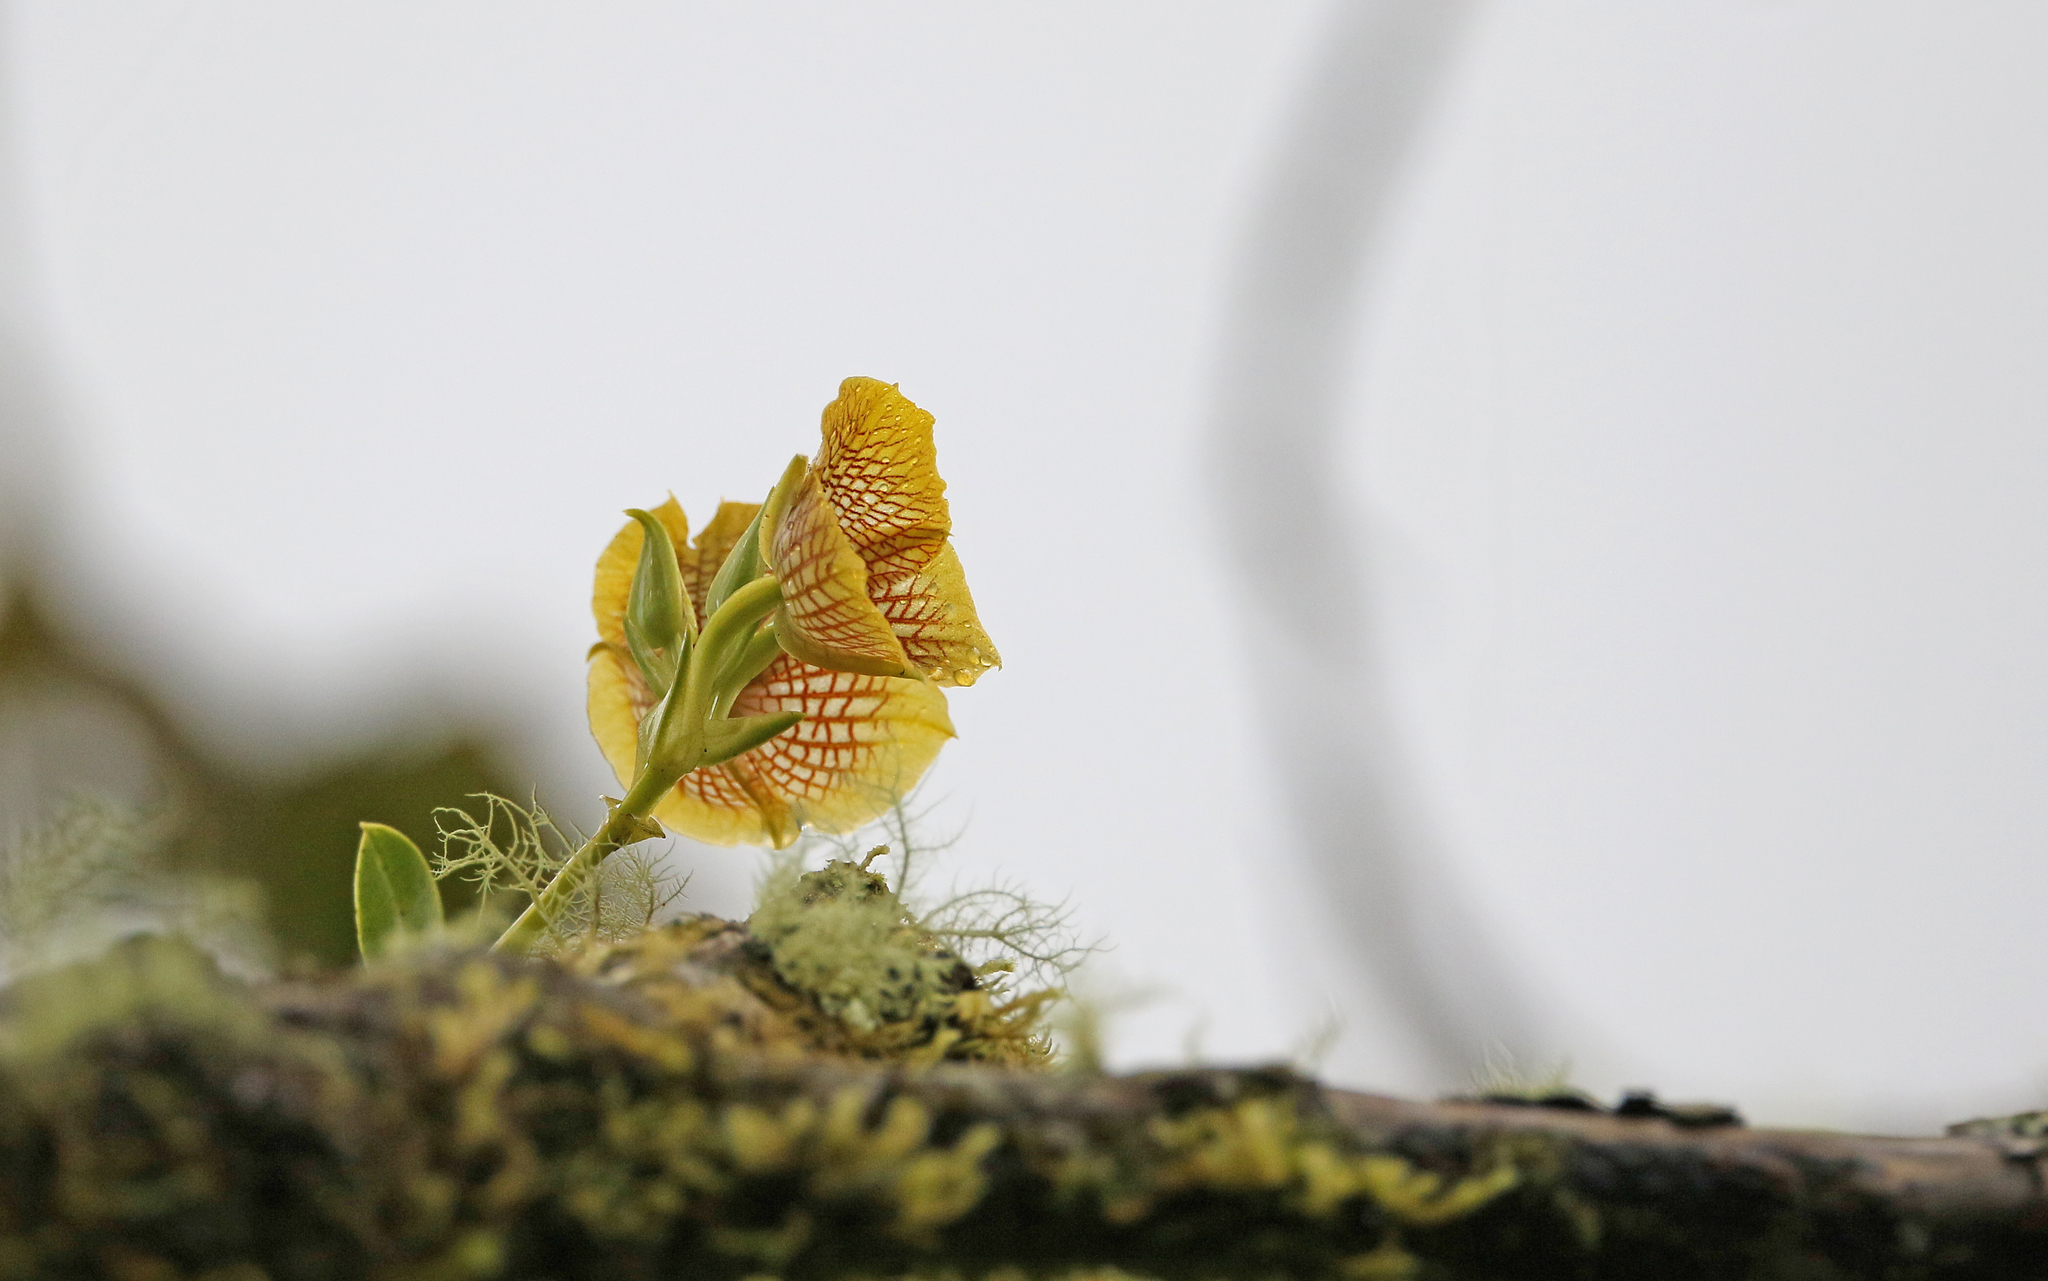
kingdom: Plantae
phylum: Tracheophyta
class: Liliopsida
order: Asparagales
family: Orchidaceae
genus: Telipogon
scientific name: Telipogon hausmannianus
